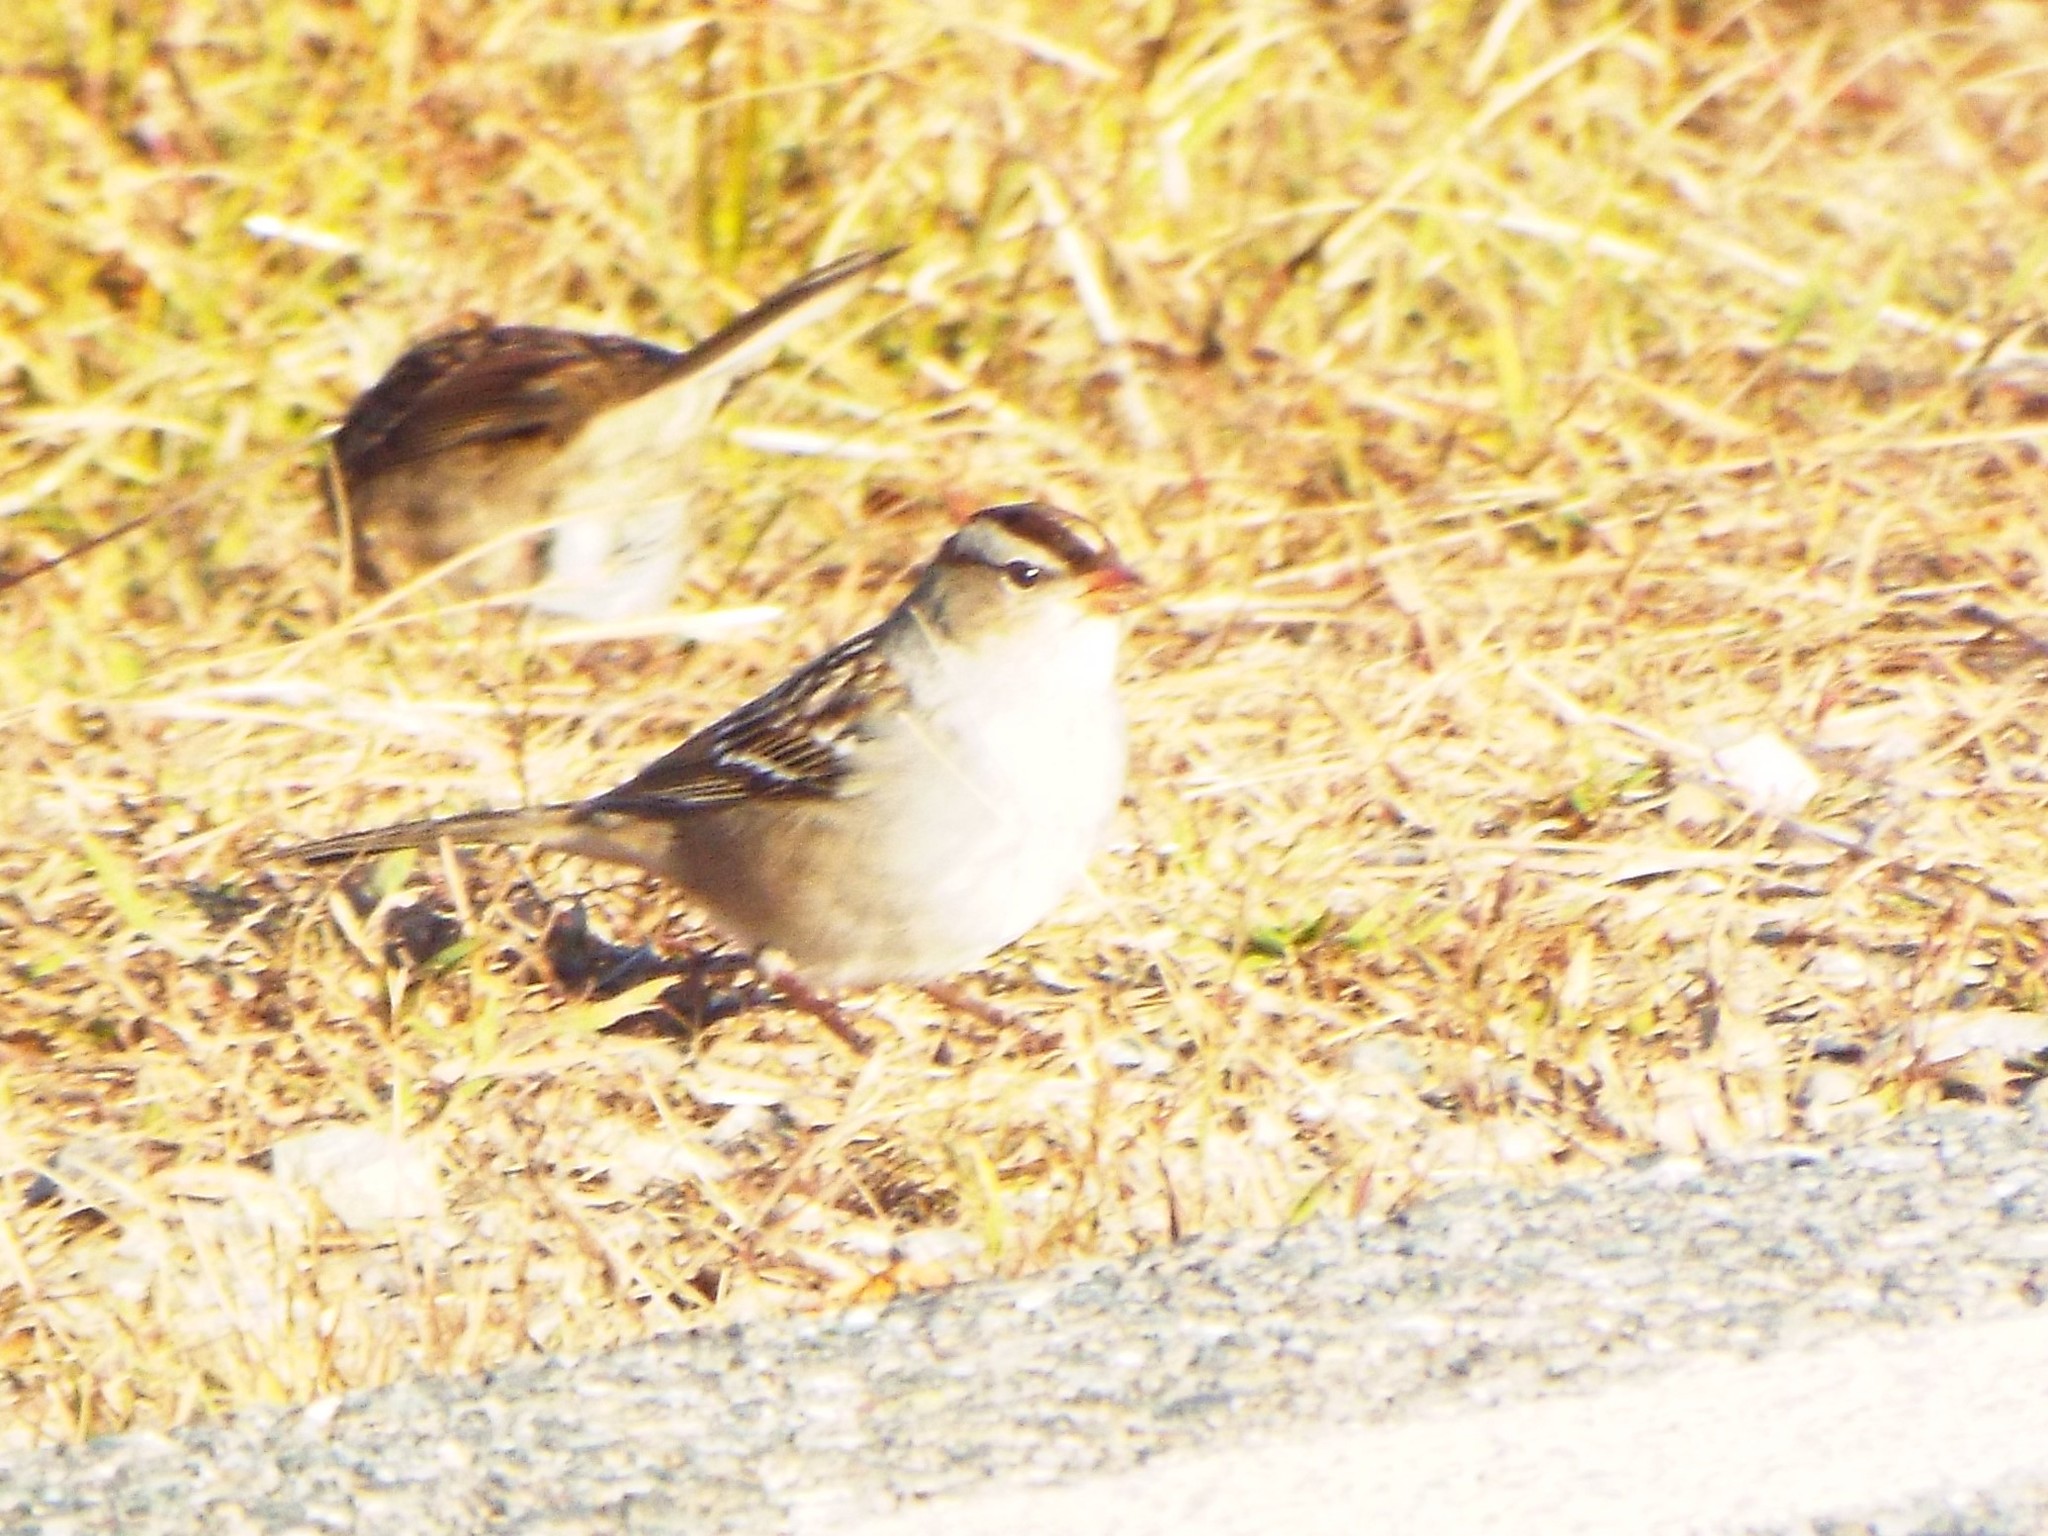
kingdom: Animalia
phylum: Chordata
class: Aves
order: Passeriformes
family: Passerellidae
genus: Zonotrichia
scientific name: Zonotrichia leucophrys
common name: White-crowned sparrow
